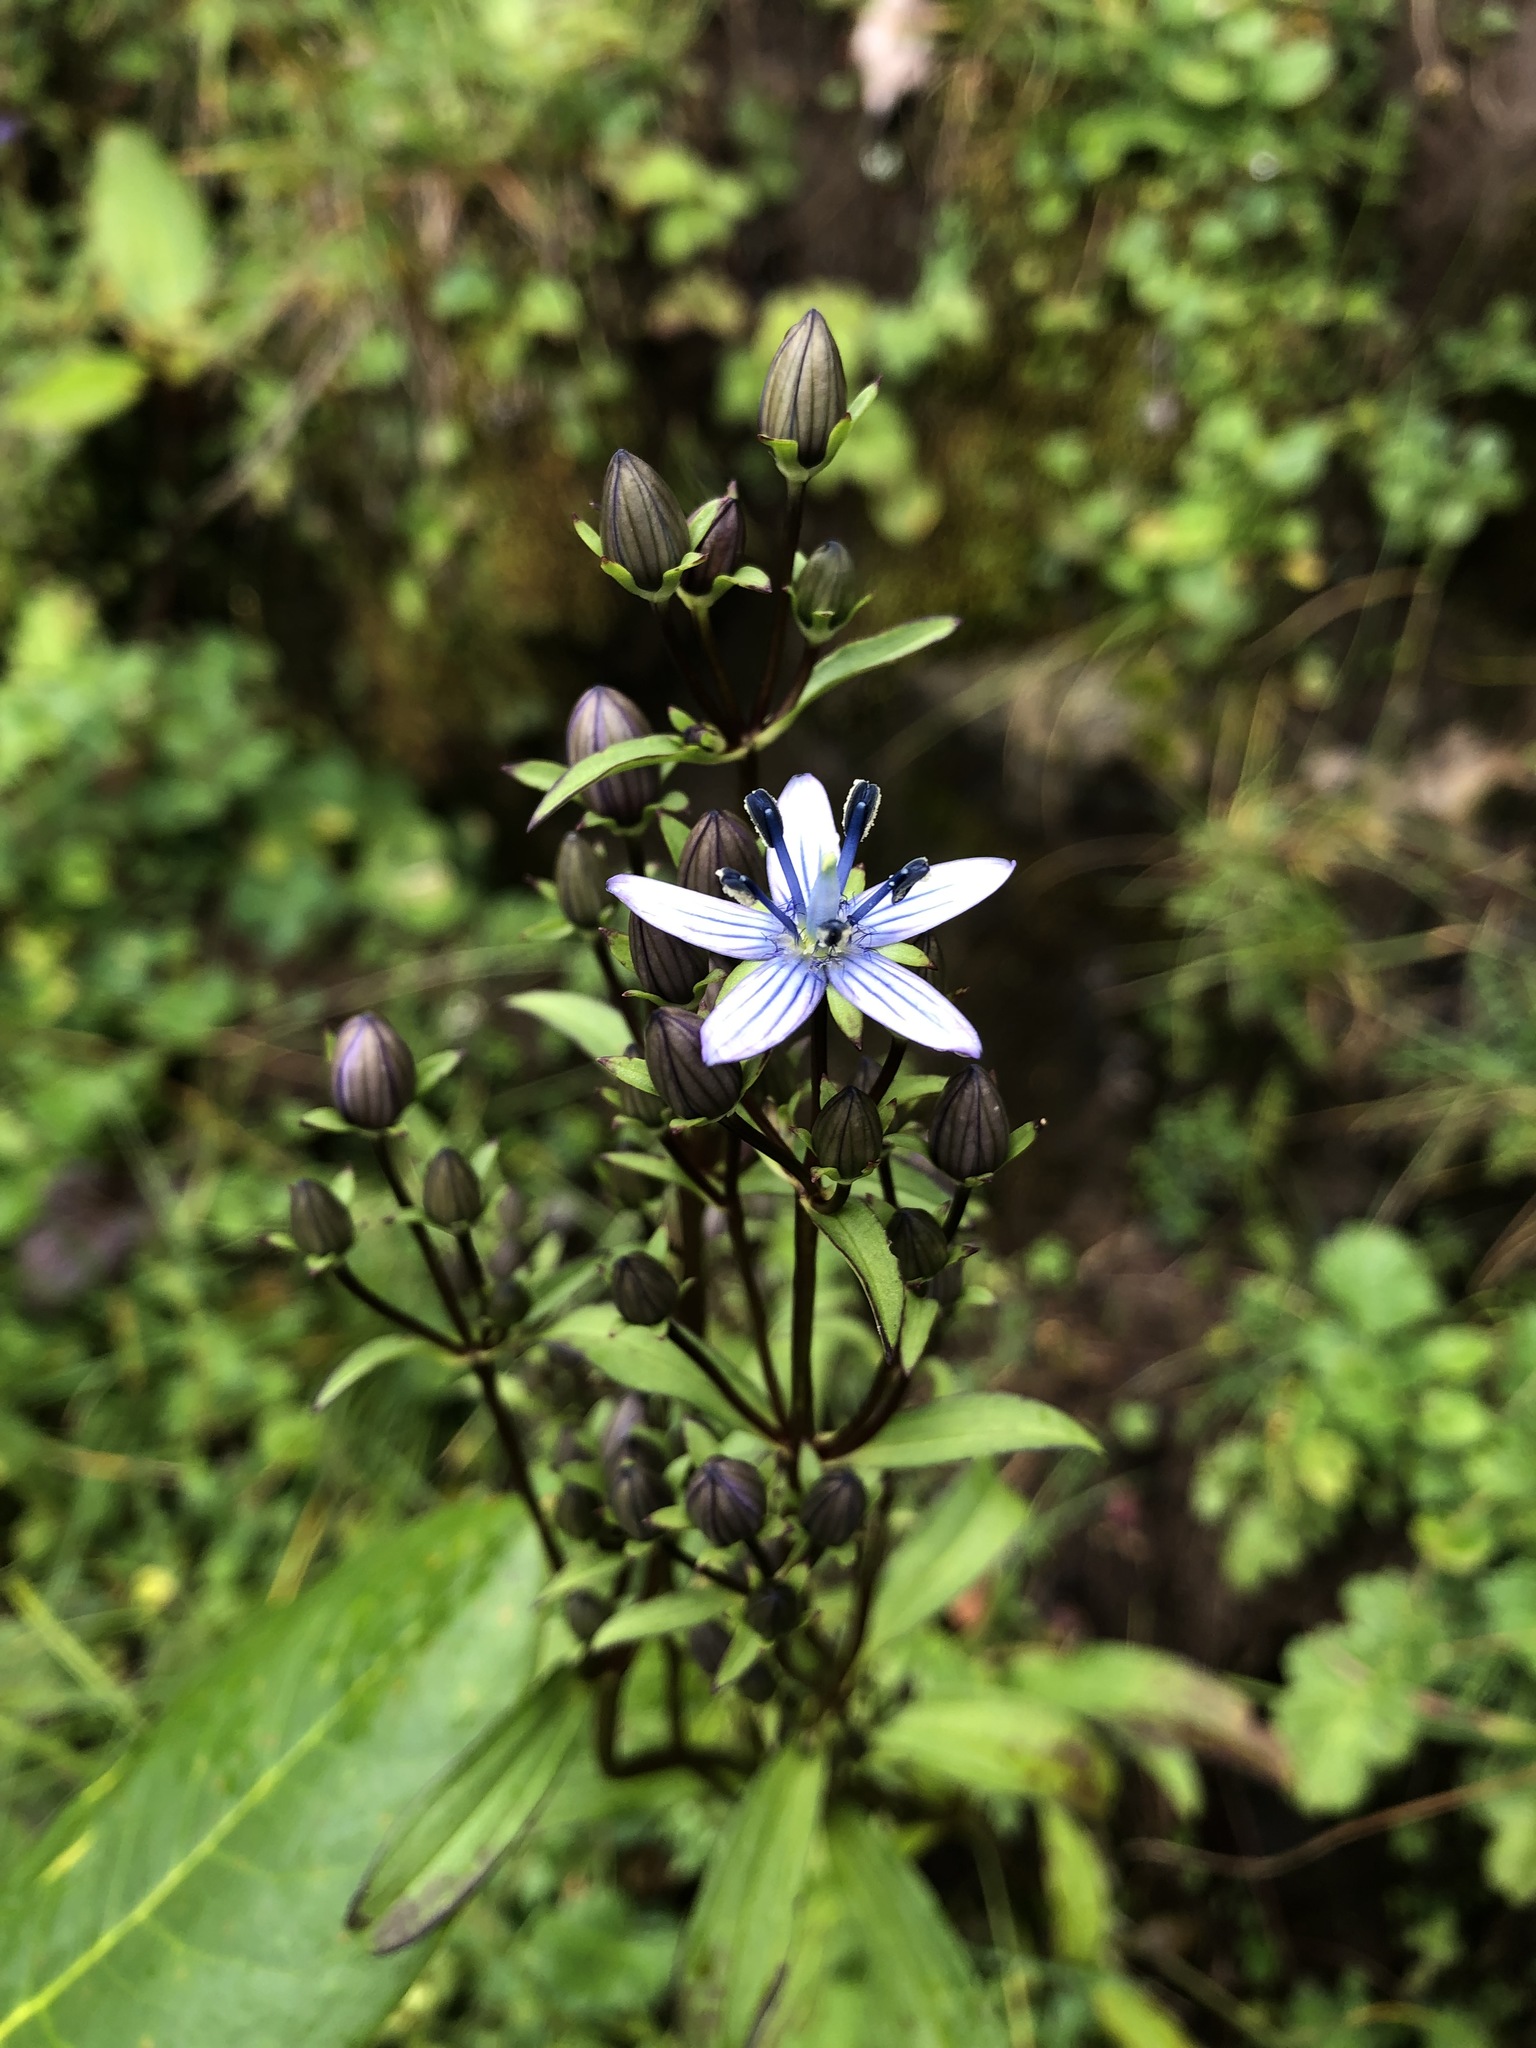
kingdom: Plantae
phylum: Tracheophyta
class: Magnoliopsida
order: Gentianales
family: Gentianaceae
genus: Lomatogonium
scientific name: Lomatogonium carinthiacum
